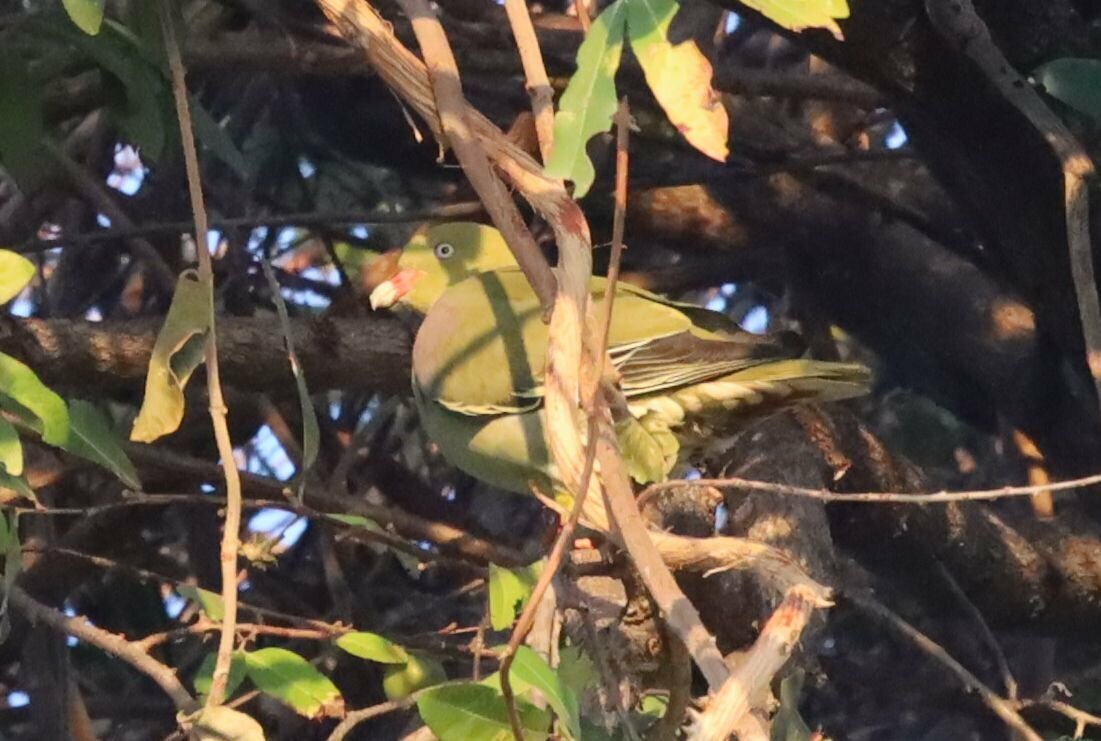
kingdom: Animalia
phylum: Chordata
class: Aves
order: Columbiformes
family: Columbidae
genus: Treron
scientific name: Treron calvus
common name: African green pigeon
